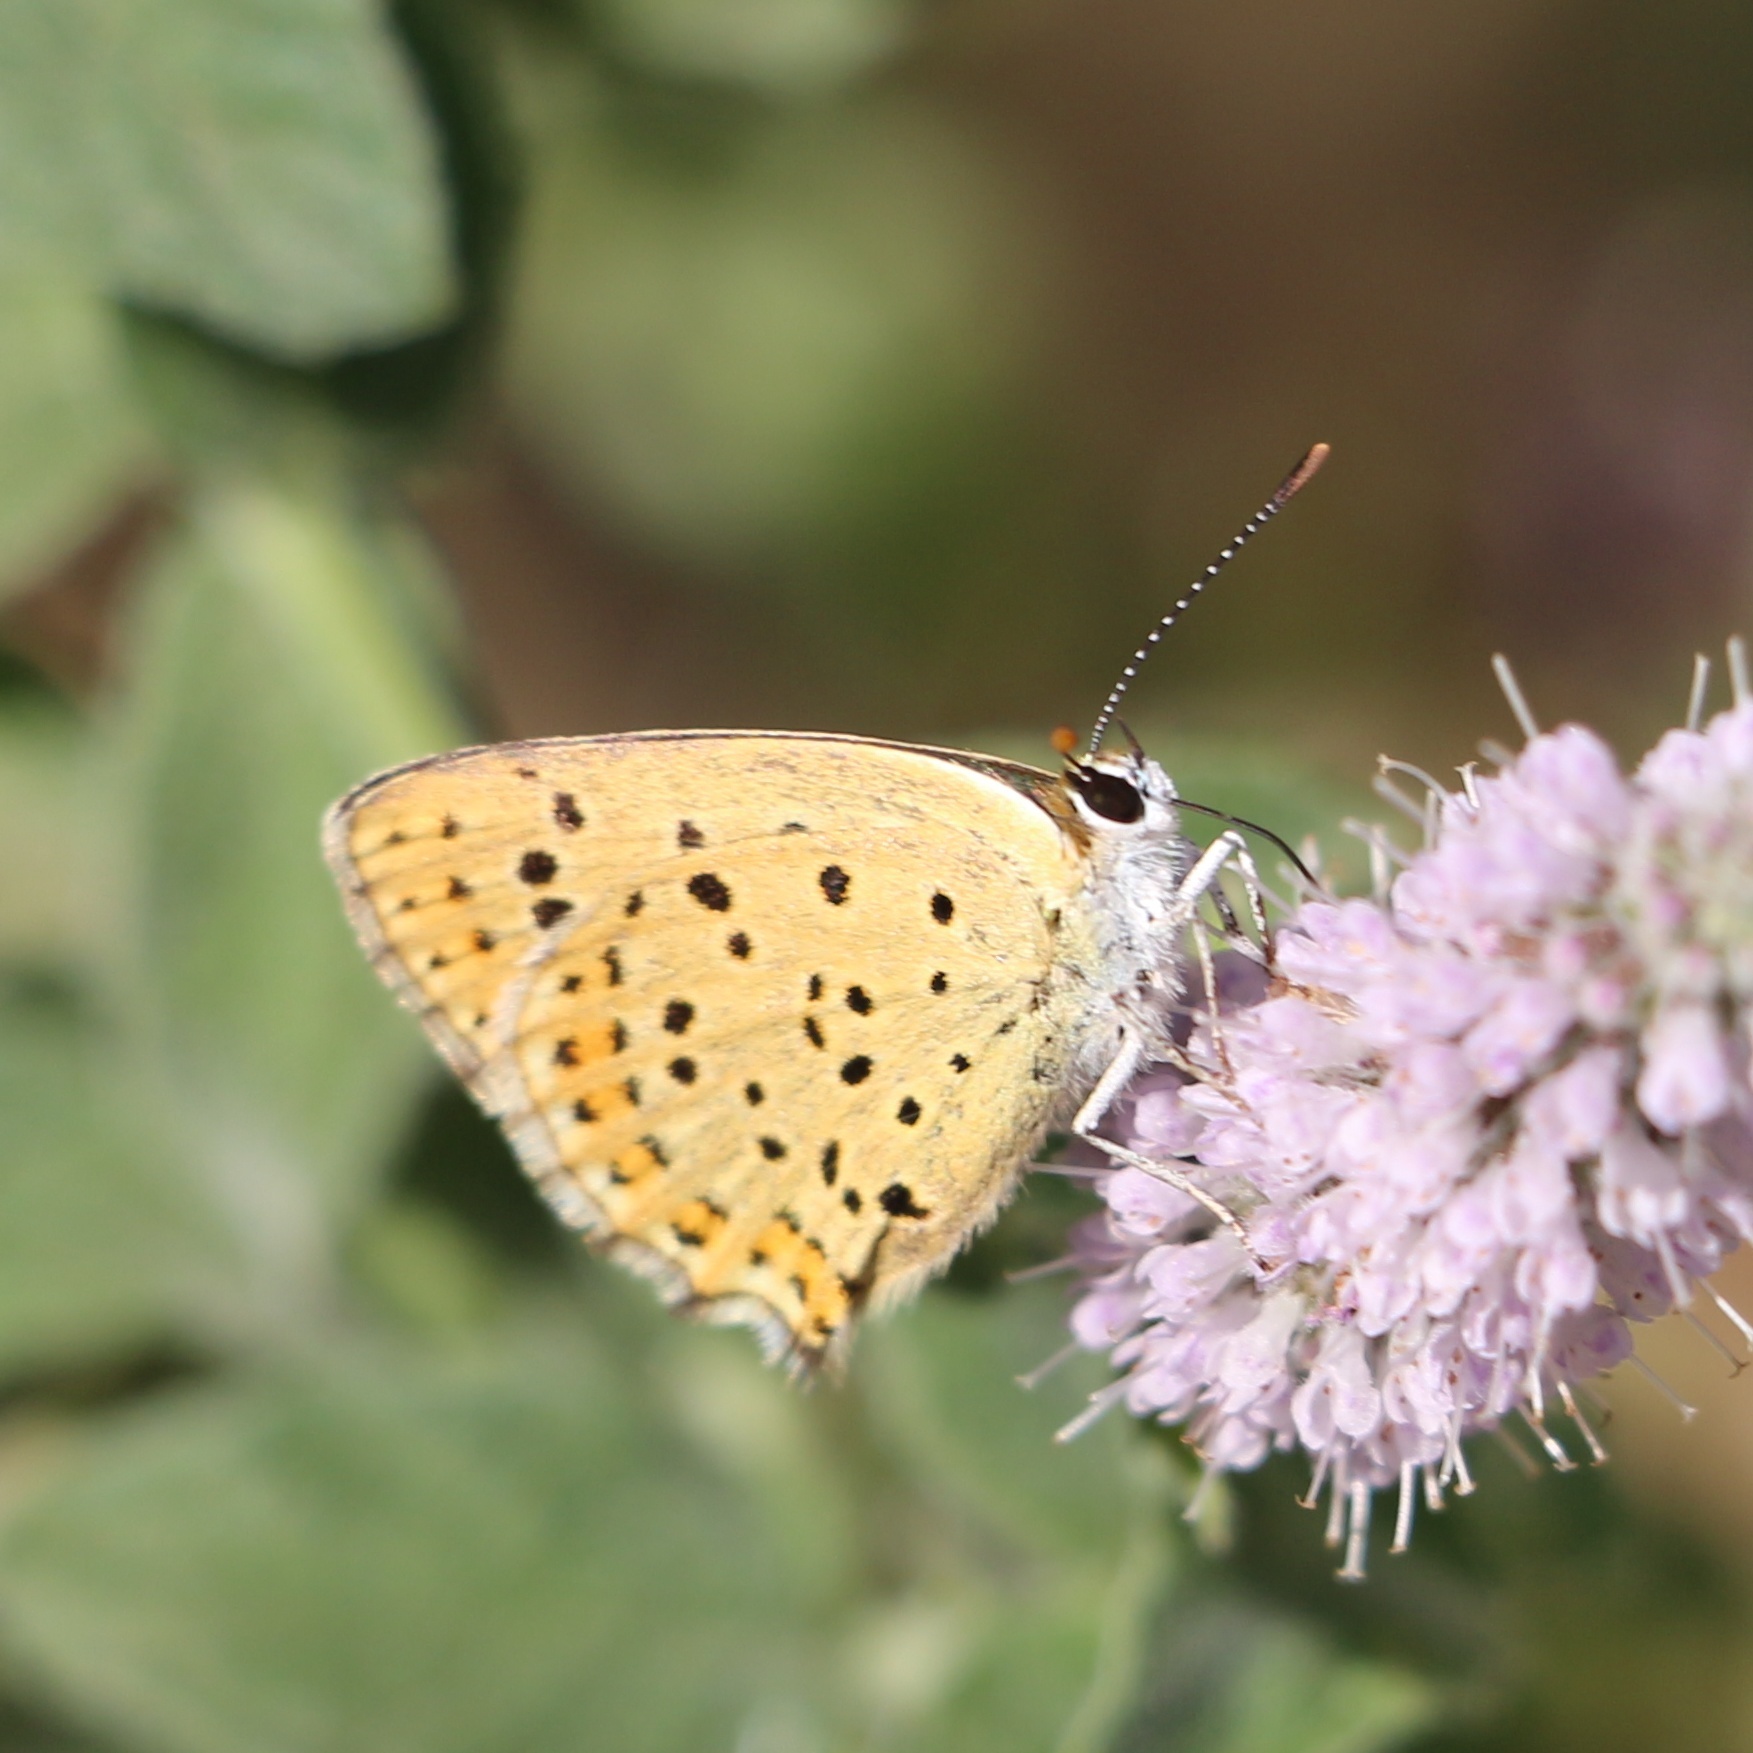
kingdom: Animalia
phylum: Arthropoda
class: Insecta
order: Lepidoptera
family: Lycaenidae
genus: Loweia
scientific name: Loweia tityrus
